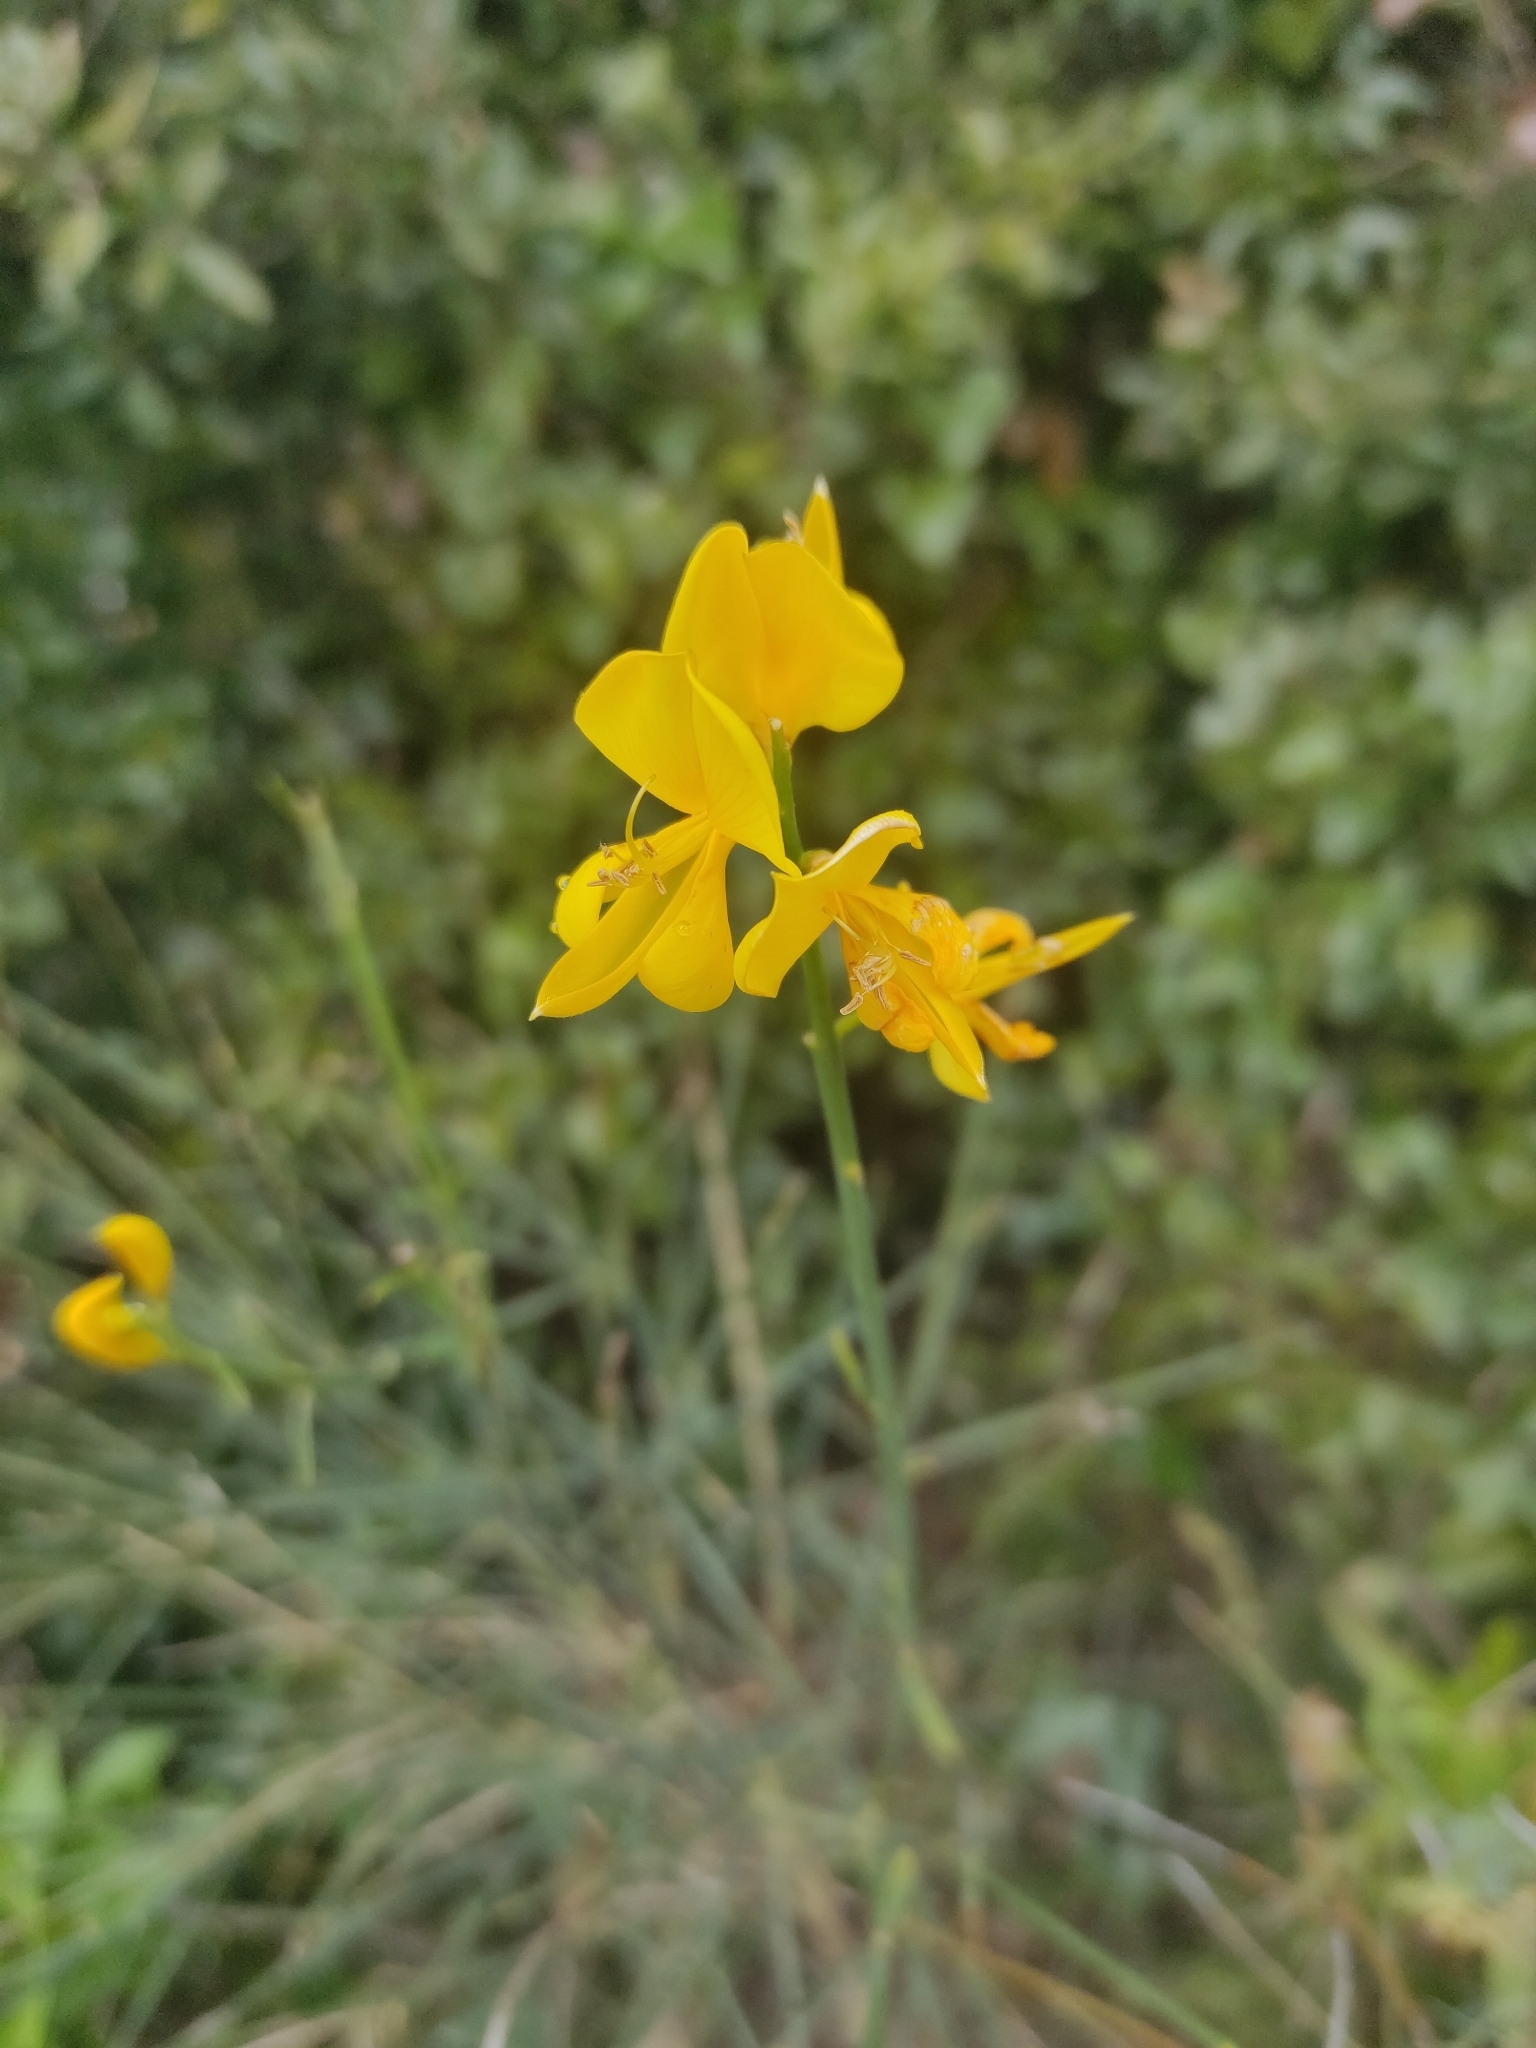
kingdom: Plantae
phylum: Tracheophyta
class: Magnoliopsida
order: Fabales
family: Fabaceae
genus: Spartium
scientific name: Spartium junceum
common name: Spanish broom
